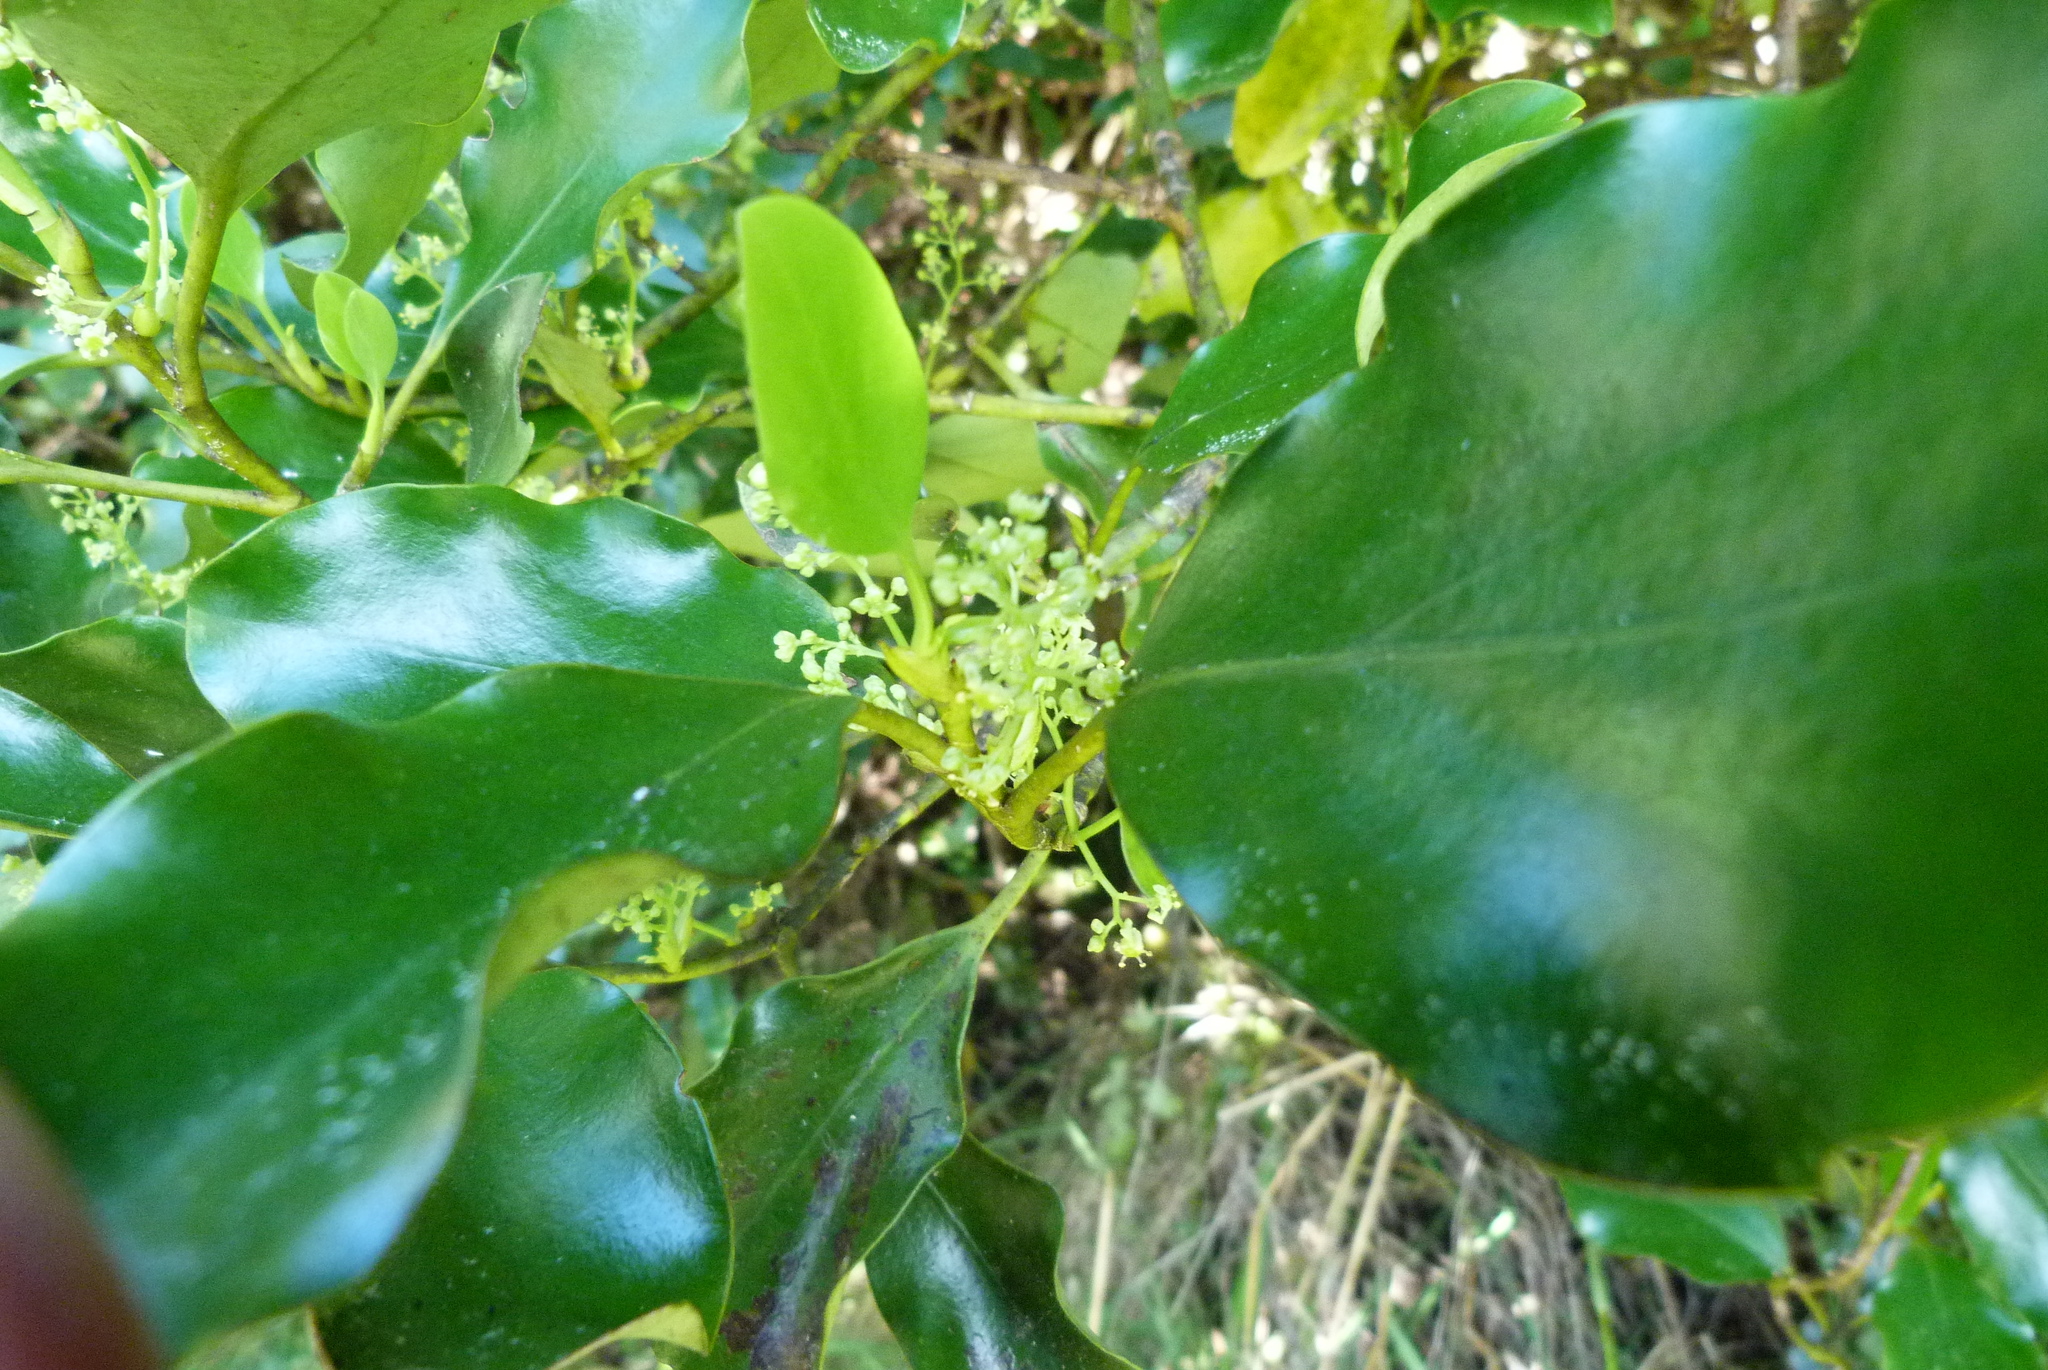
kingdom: Plantae
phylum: Tracheophyta
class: Magnoliopsida
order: Apiales
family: Griseliniaceae
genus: Griselinia
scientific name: Griselinia littoralis
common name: New zealand broadleaf
